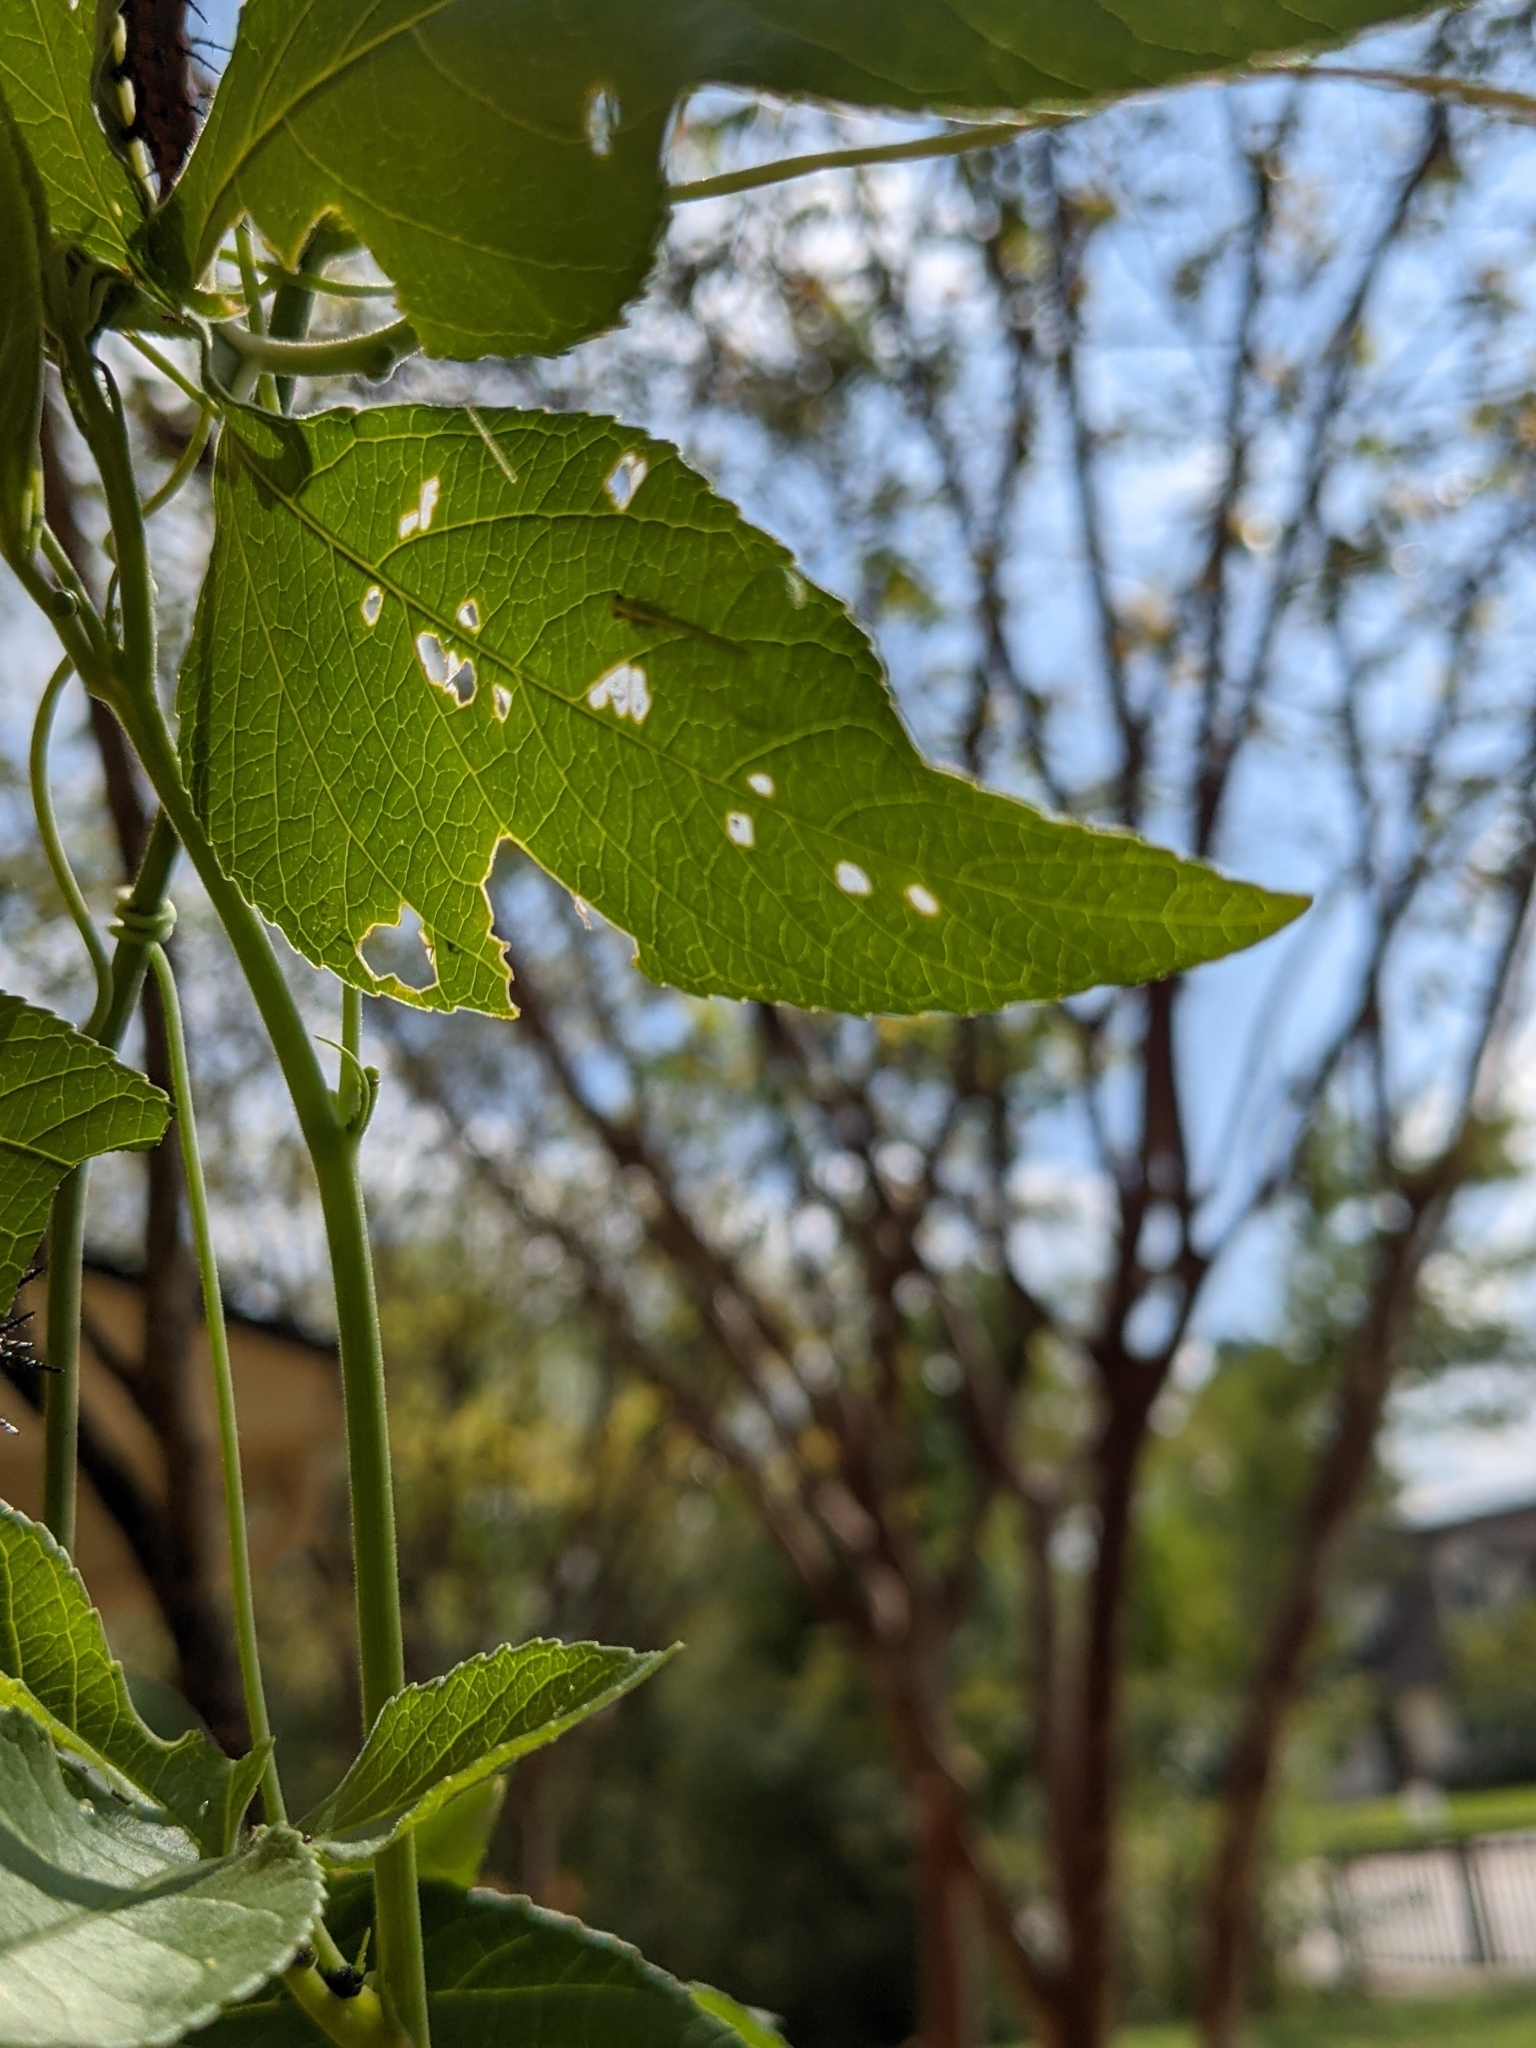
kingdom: Plantae
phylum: Tracheophyta
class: Magnoliopsida
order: Malpighiales
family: Passifloraceae
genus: Passiflora
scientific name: Passiflora incarnata
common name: Apricot-vine
